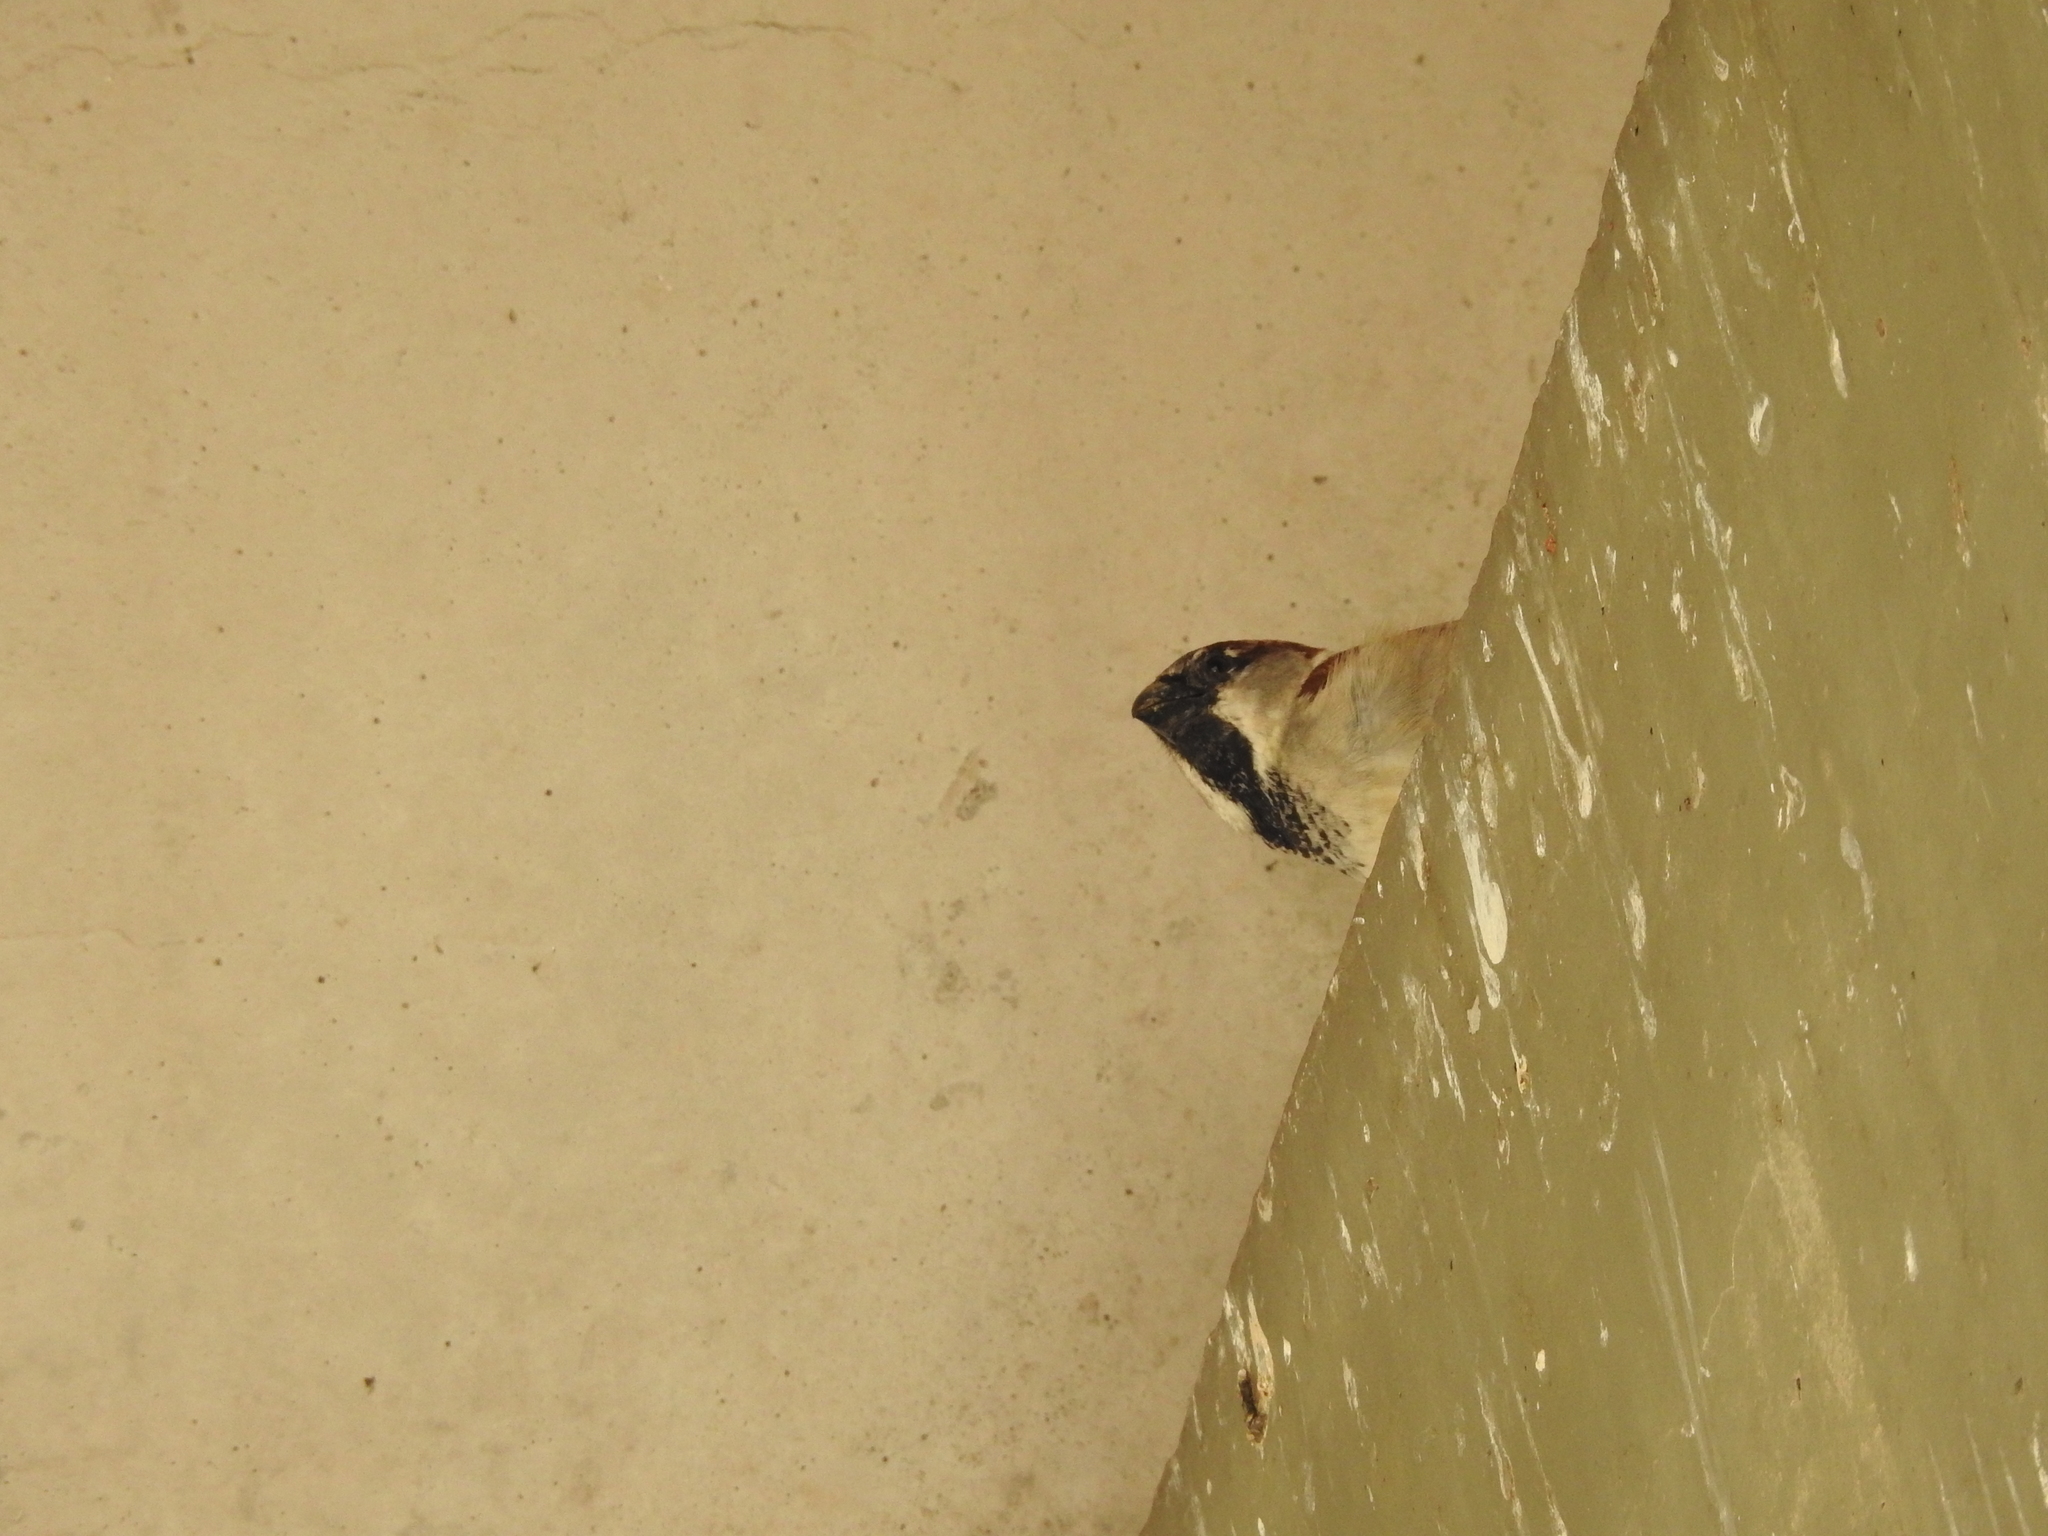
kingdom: Animalia
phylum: Chordata
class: Aves
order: Passeriformes
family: Passeridae
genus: Passer
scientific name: Passer domesticus
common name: House sparrow
